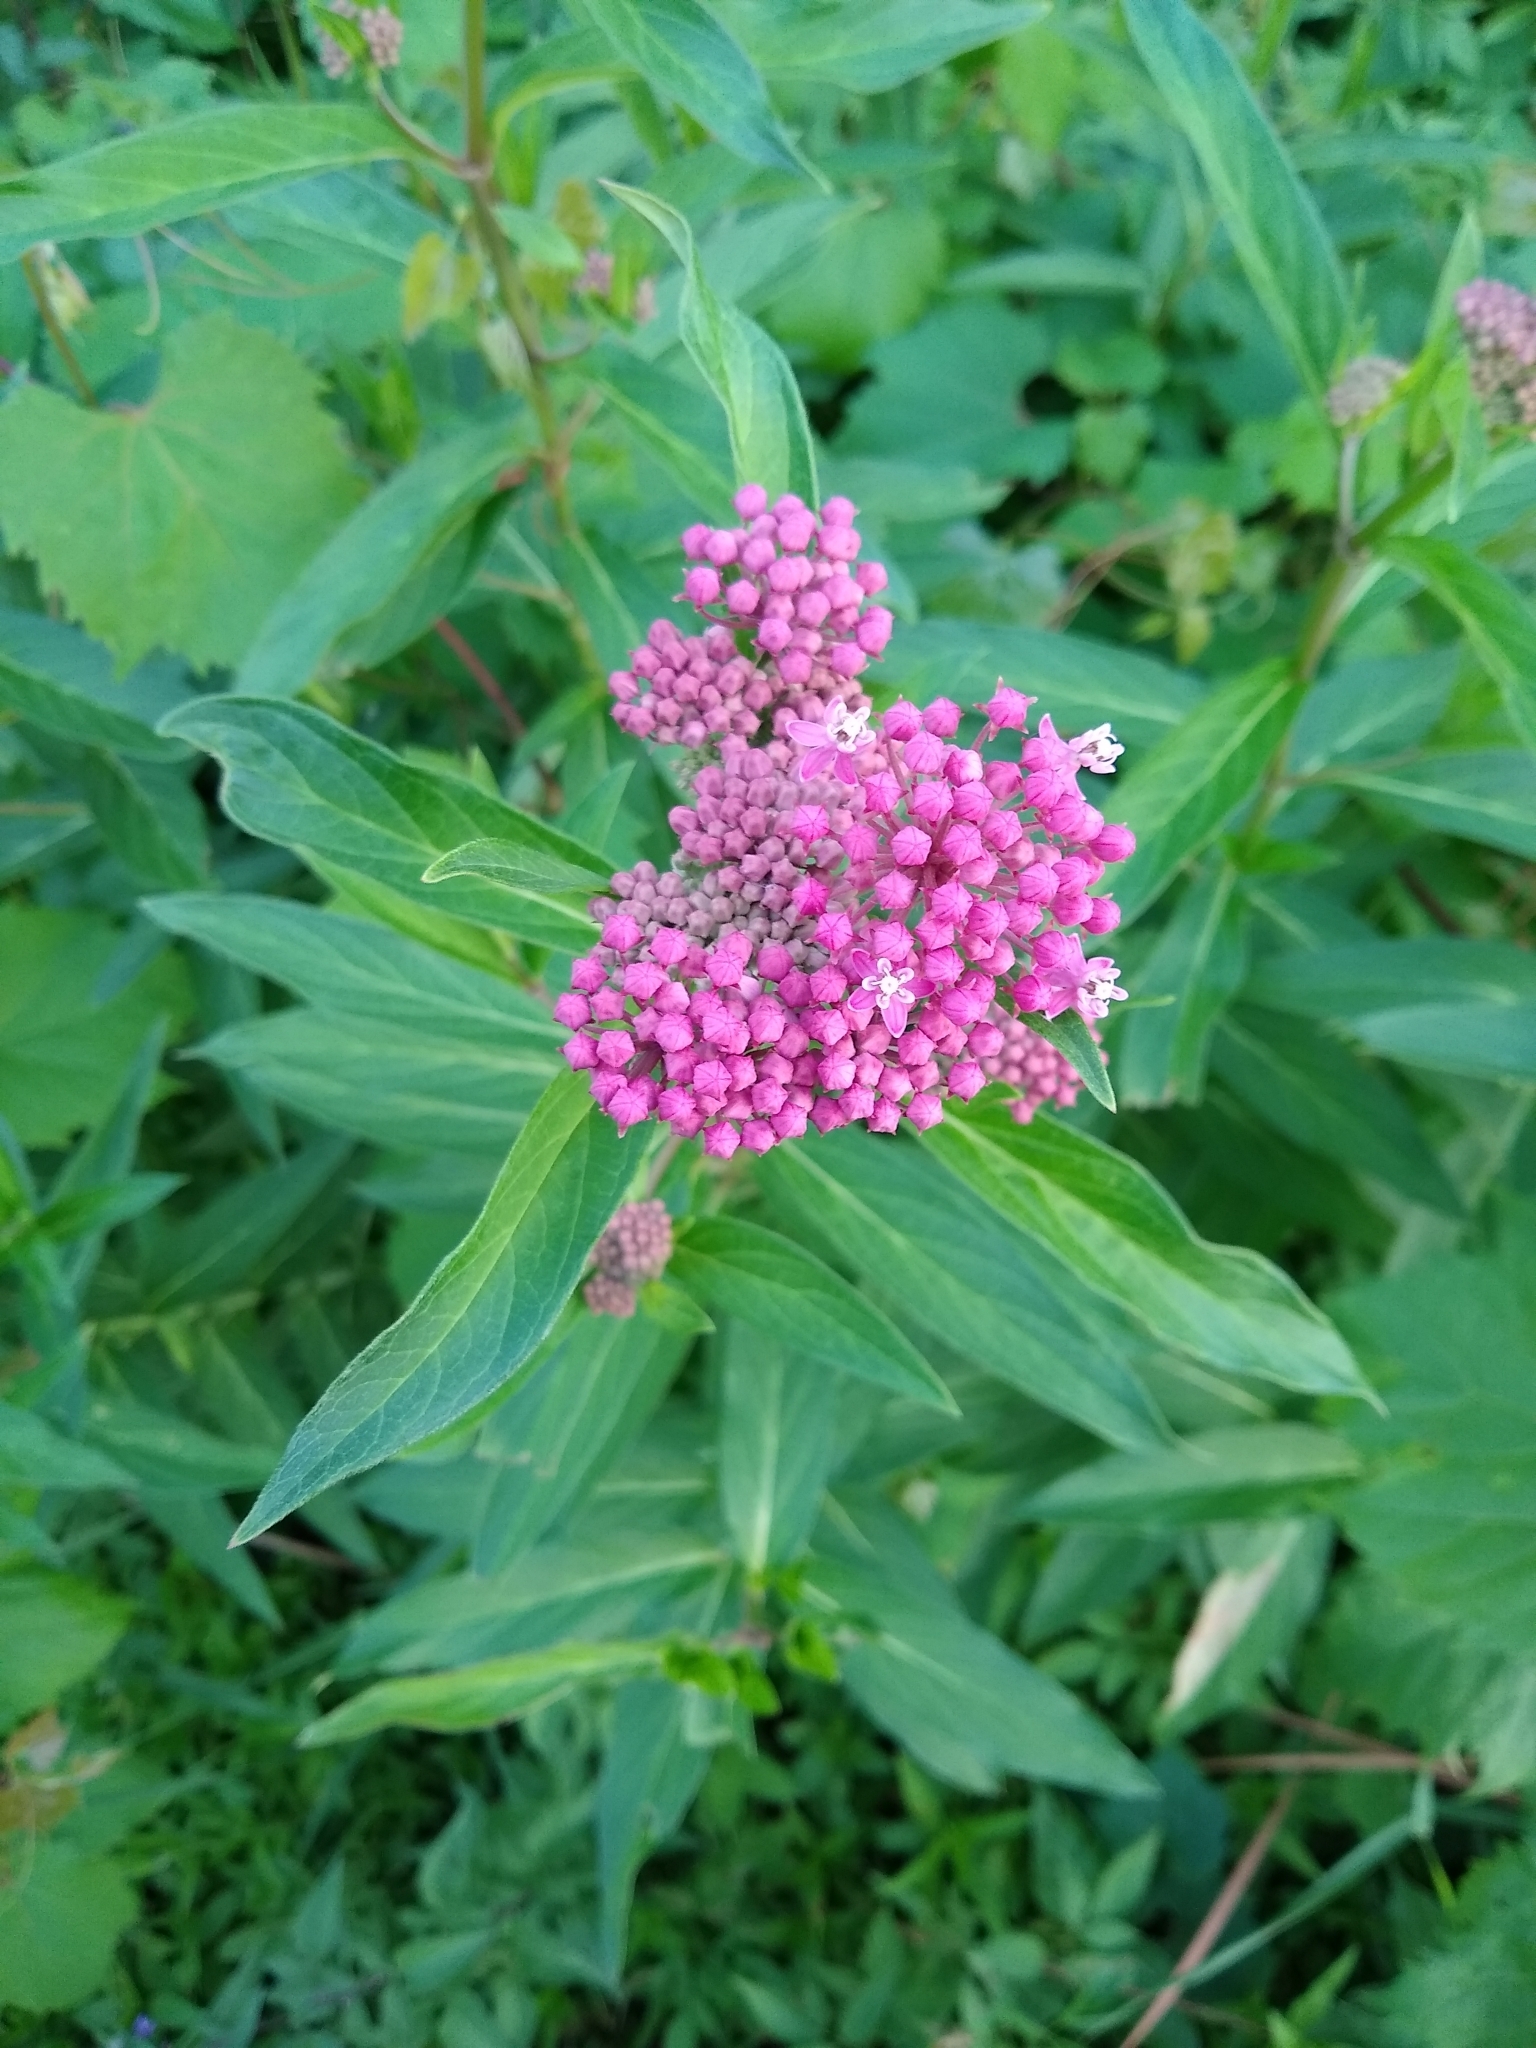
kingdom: Plantae
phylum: Tracheophyta
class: Magnoliopsida
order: Gentianales
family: Apocynaceae
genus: Asclepias
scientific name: Asclepias incarnata
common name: Swamp milkweed
